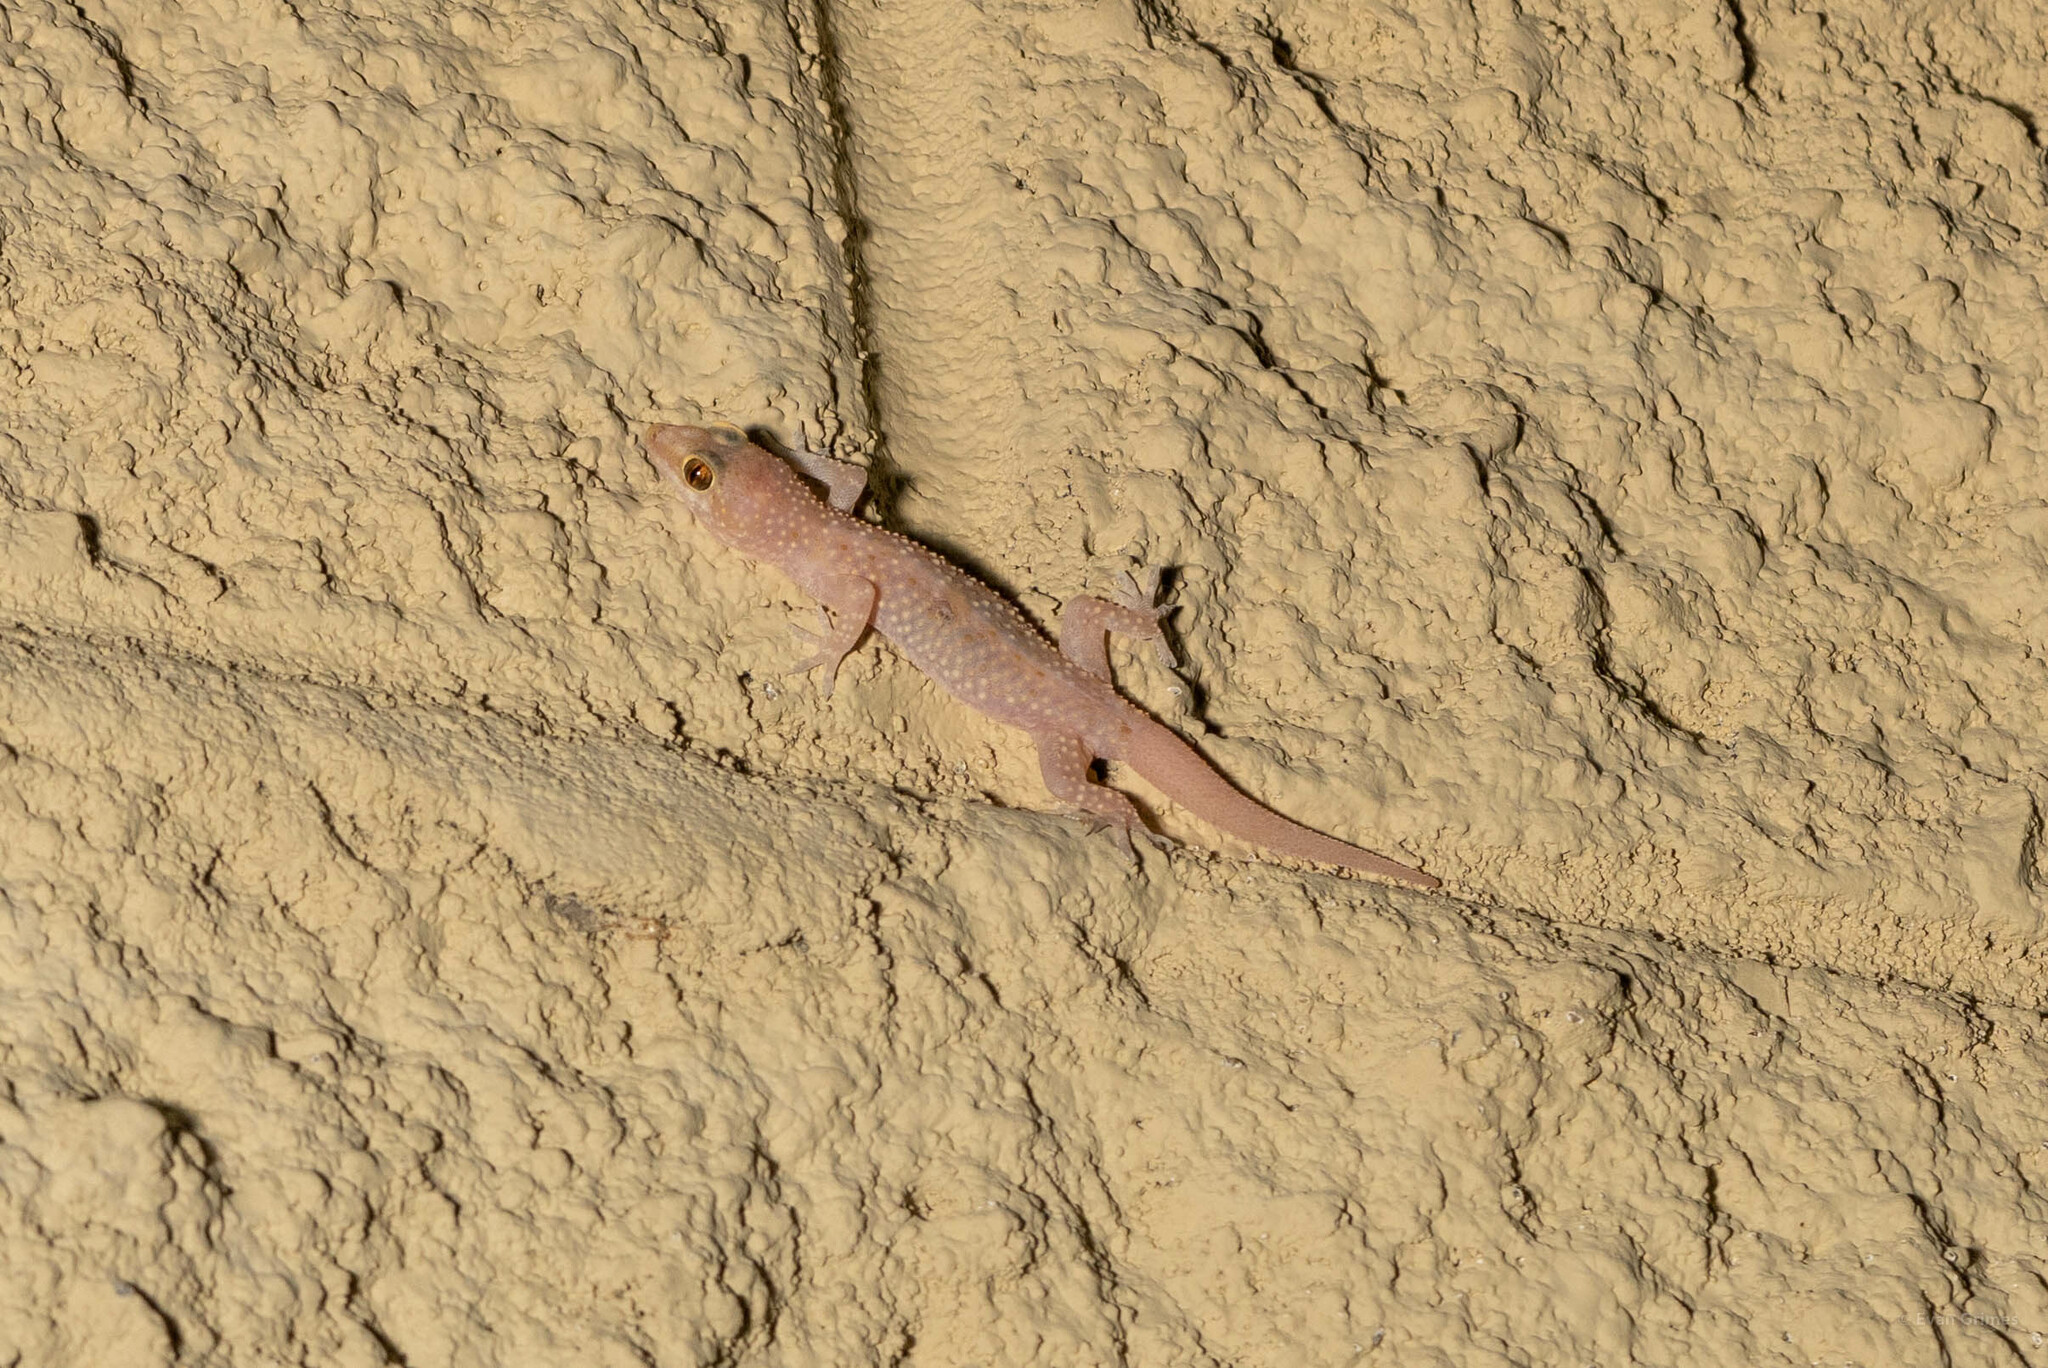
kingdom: Animalia
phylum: Chordata
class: Squamata
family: Gekkonidae
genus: Hemidactylus
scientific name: Hemidactylus turcicus
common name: Turkish gecko
